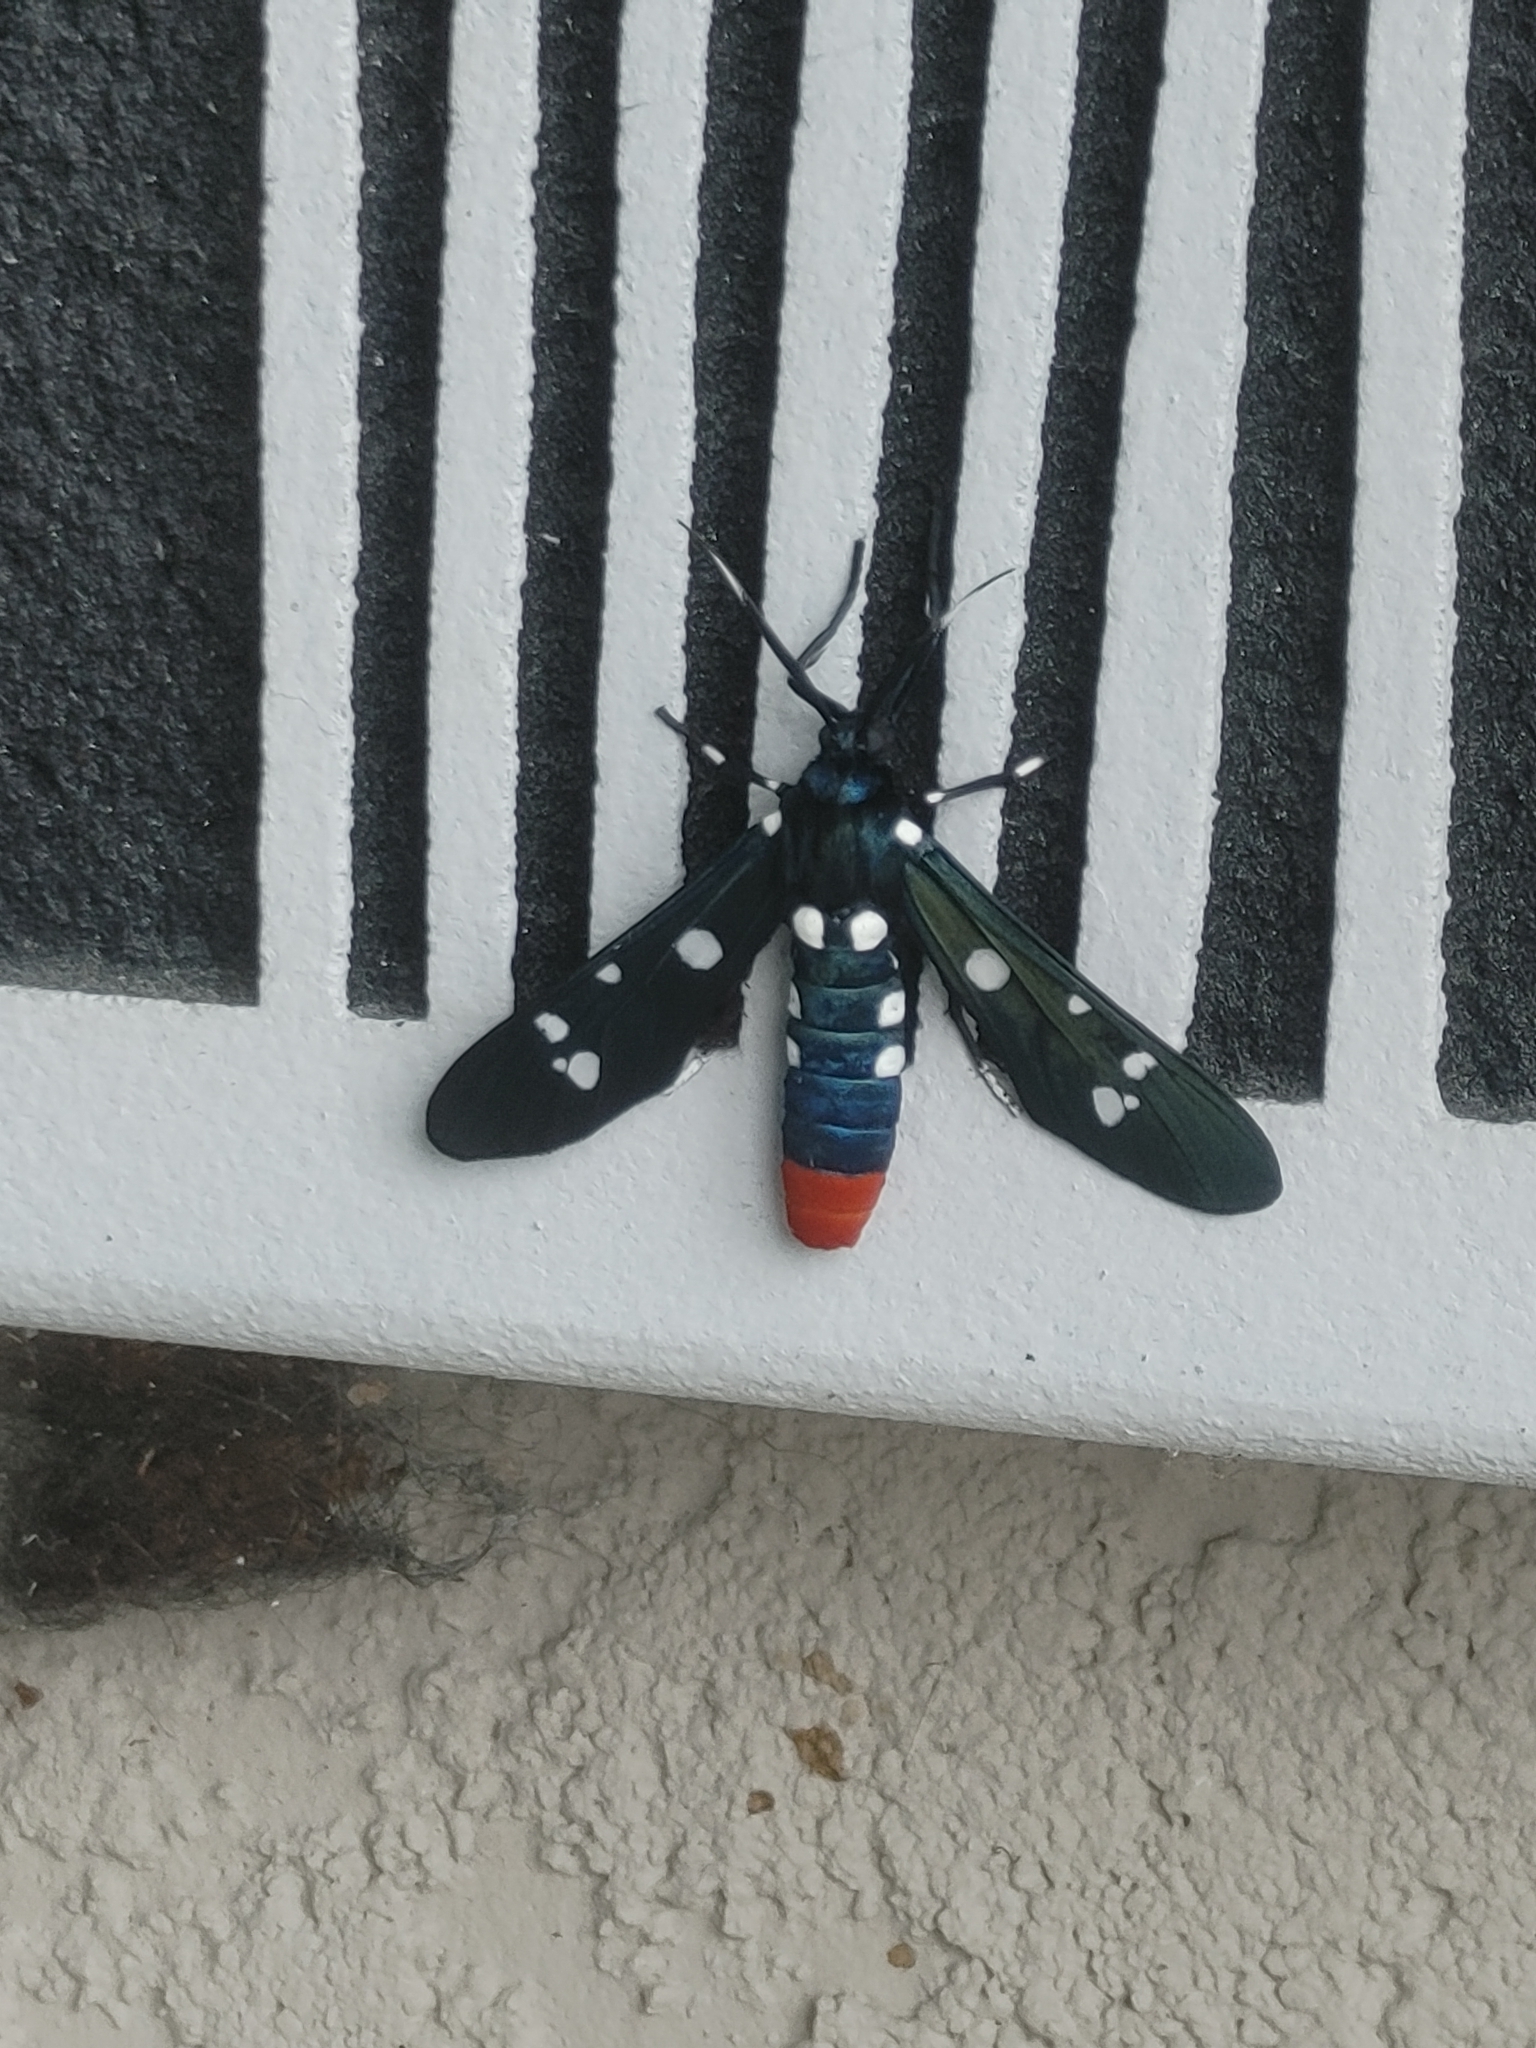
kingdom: Animalia
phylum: Arthropoda
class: Insecta
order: Lepidoptera
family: Erebidae
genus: Syntomeida
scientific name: Syntomeida epilais
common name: Polka-dot wasp moth
